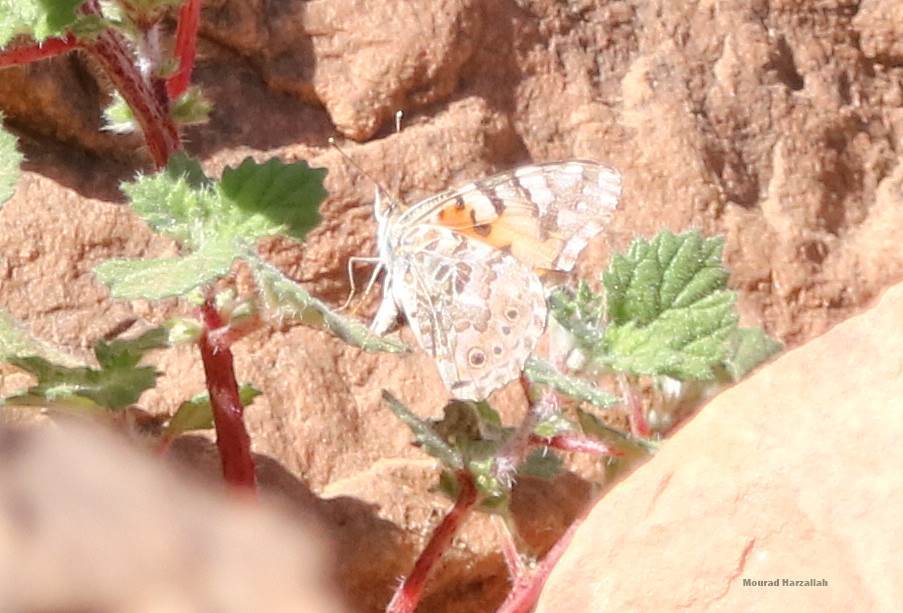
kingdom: Animalia
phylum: Arthropoda
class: Insecta
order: Lepidoptera
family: Nymphalidae
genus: Vanessa
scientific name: Vanessa cardui
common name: Painted lady
